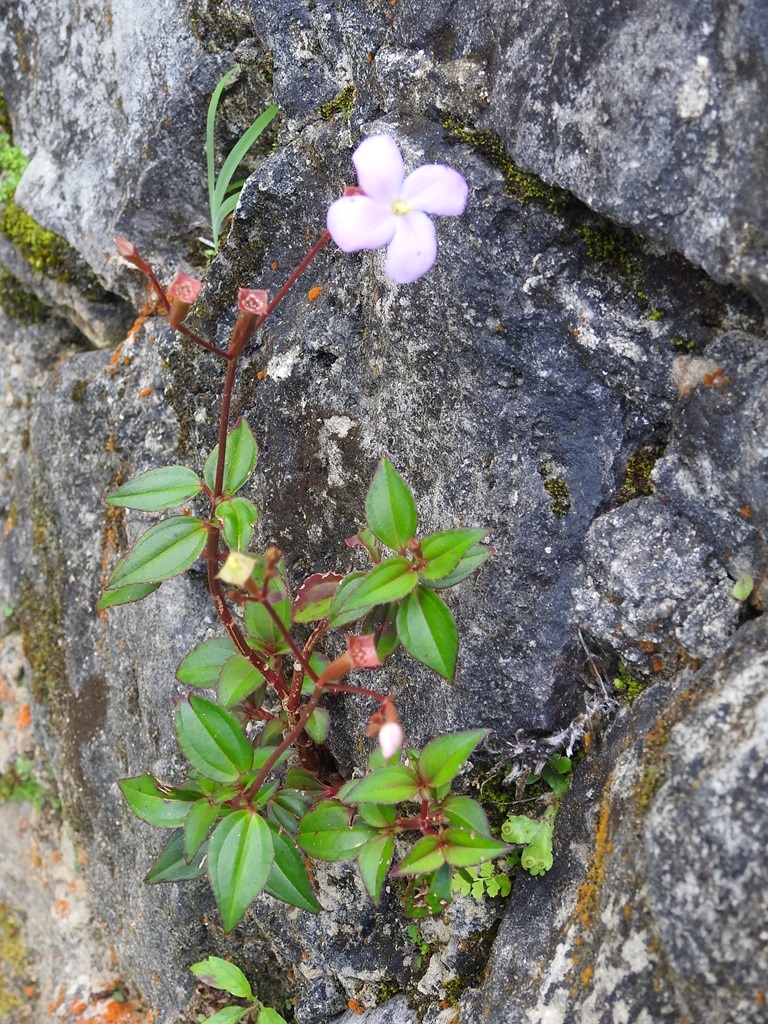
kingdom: Plantae
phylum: Tracheophyta
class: Magnoliopsida
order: Myrtales
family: Melastomataceae
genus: Arthrostemma
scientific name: Arthrostemma parvifolium
